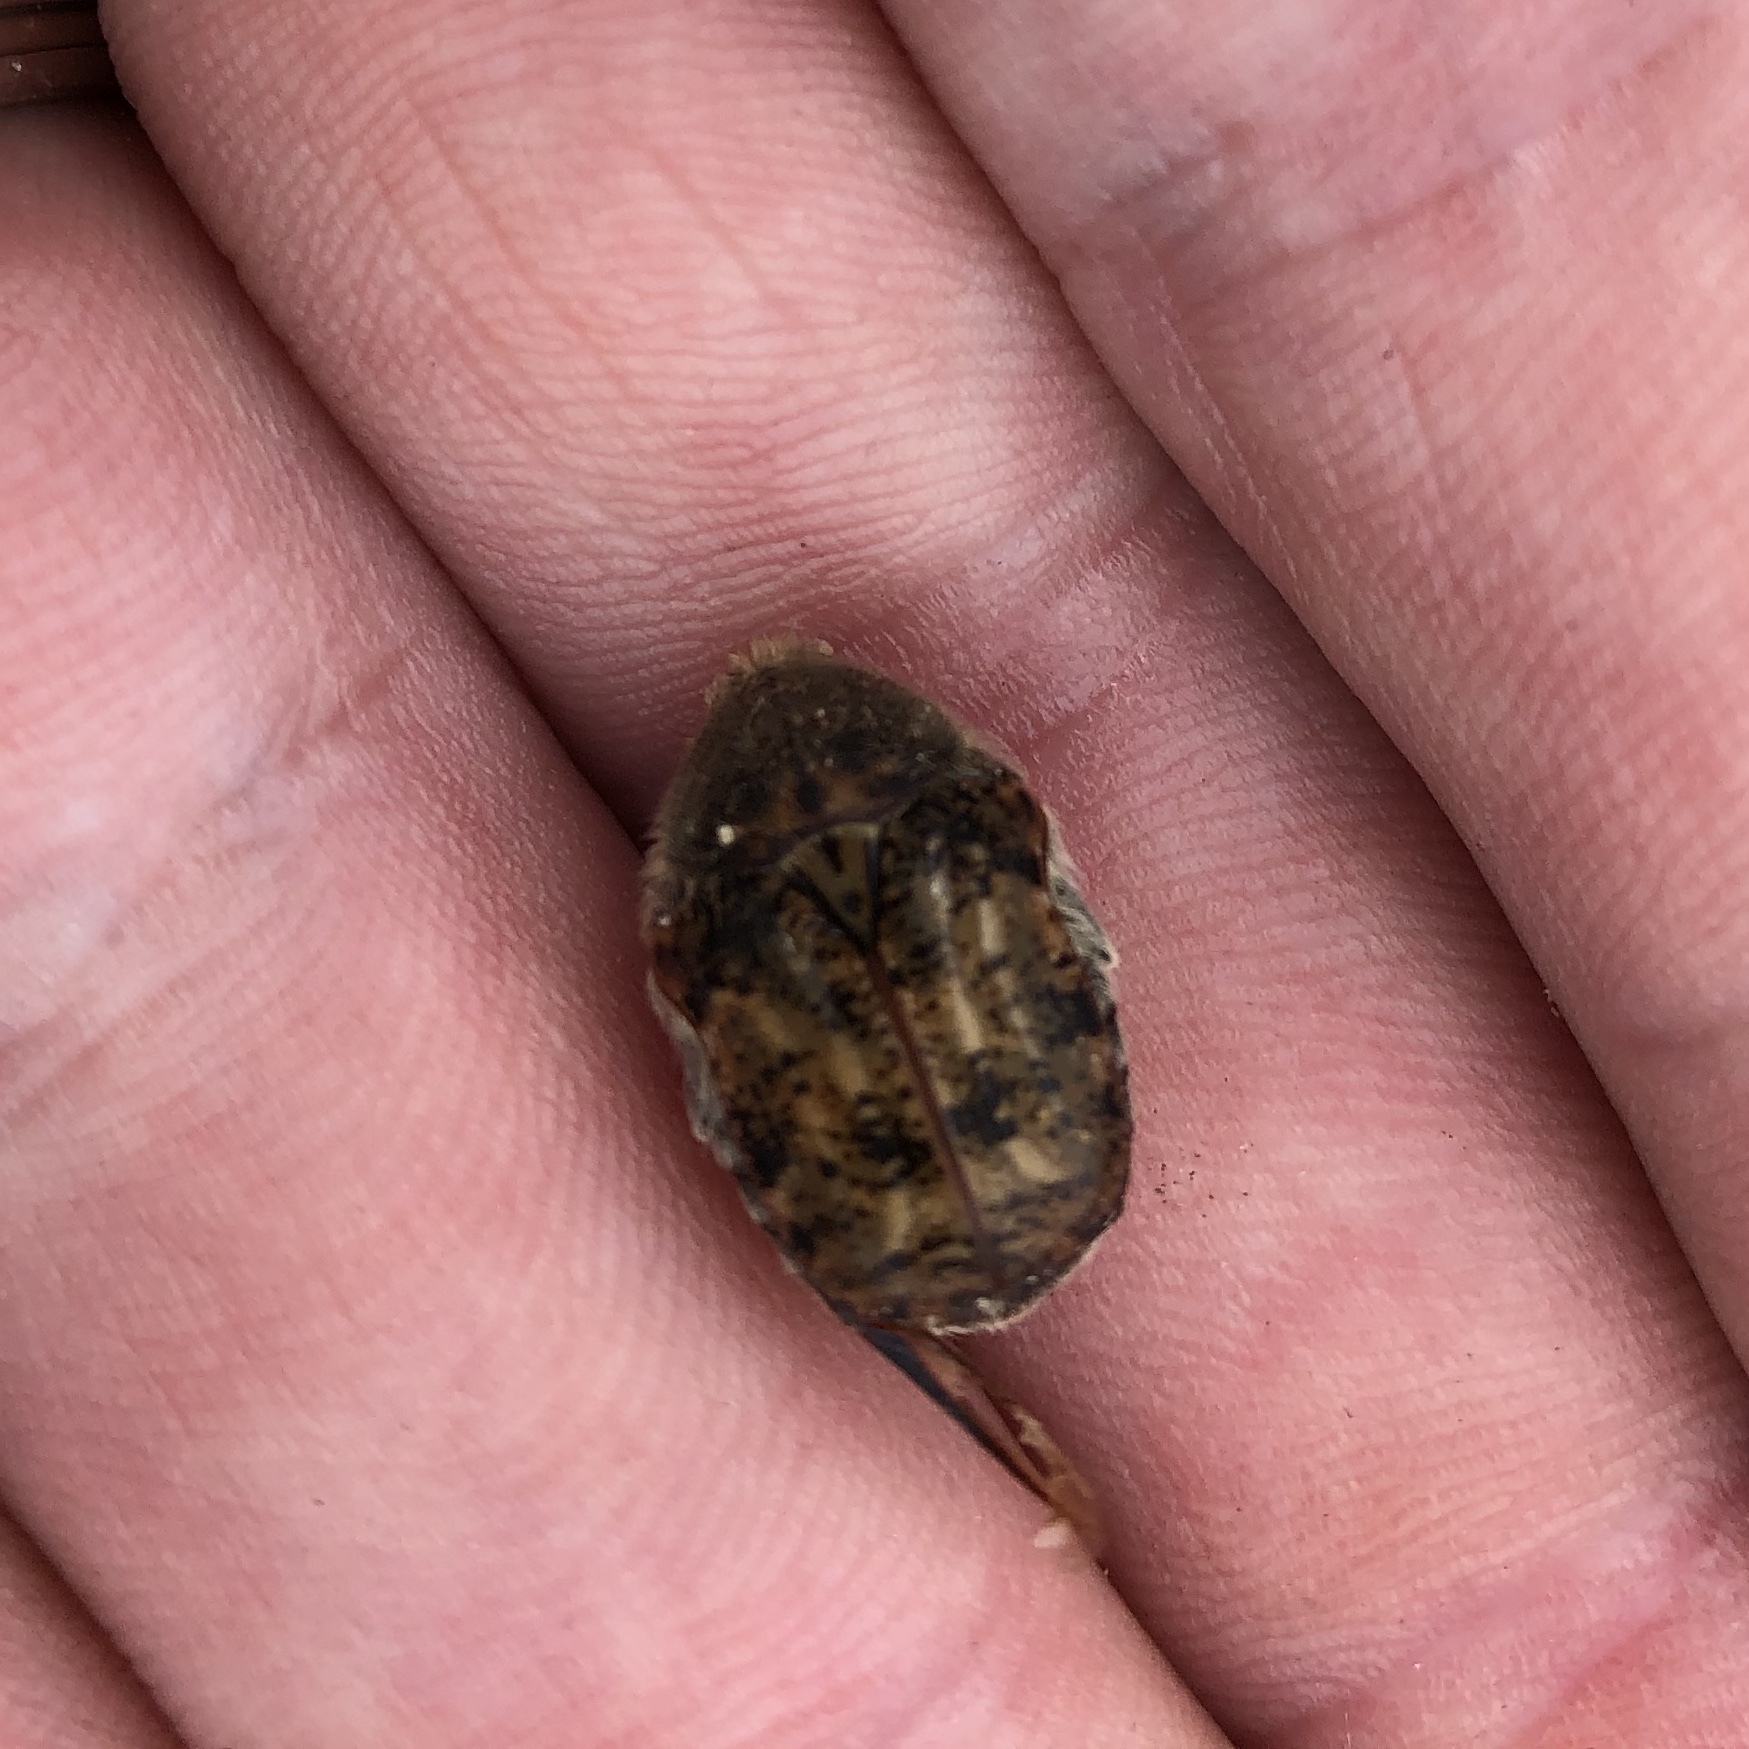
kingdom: Animalia
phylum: Arthropoda
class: Insecta
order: Coleoptera
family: Scarabaeidae
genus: Euphoria
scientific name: Euphoria inda
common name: Bumble flower beetle
